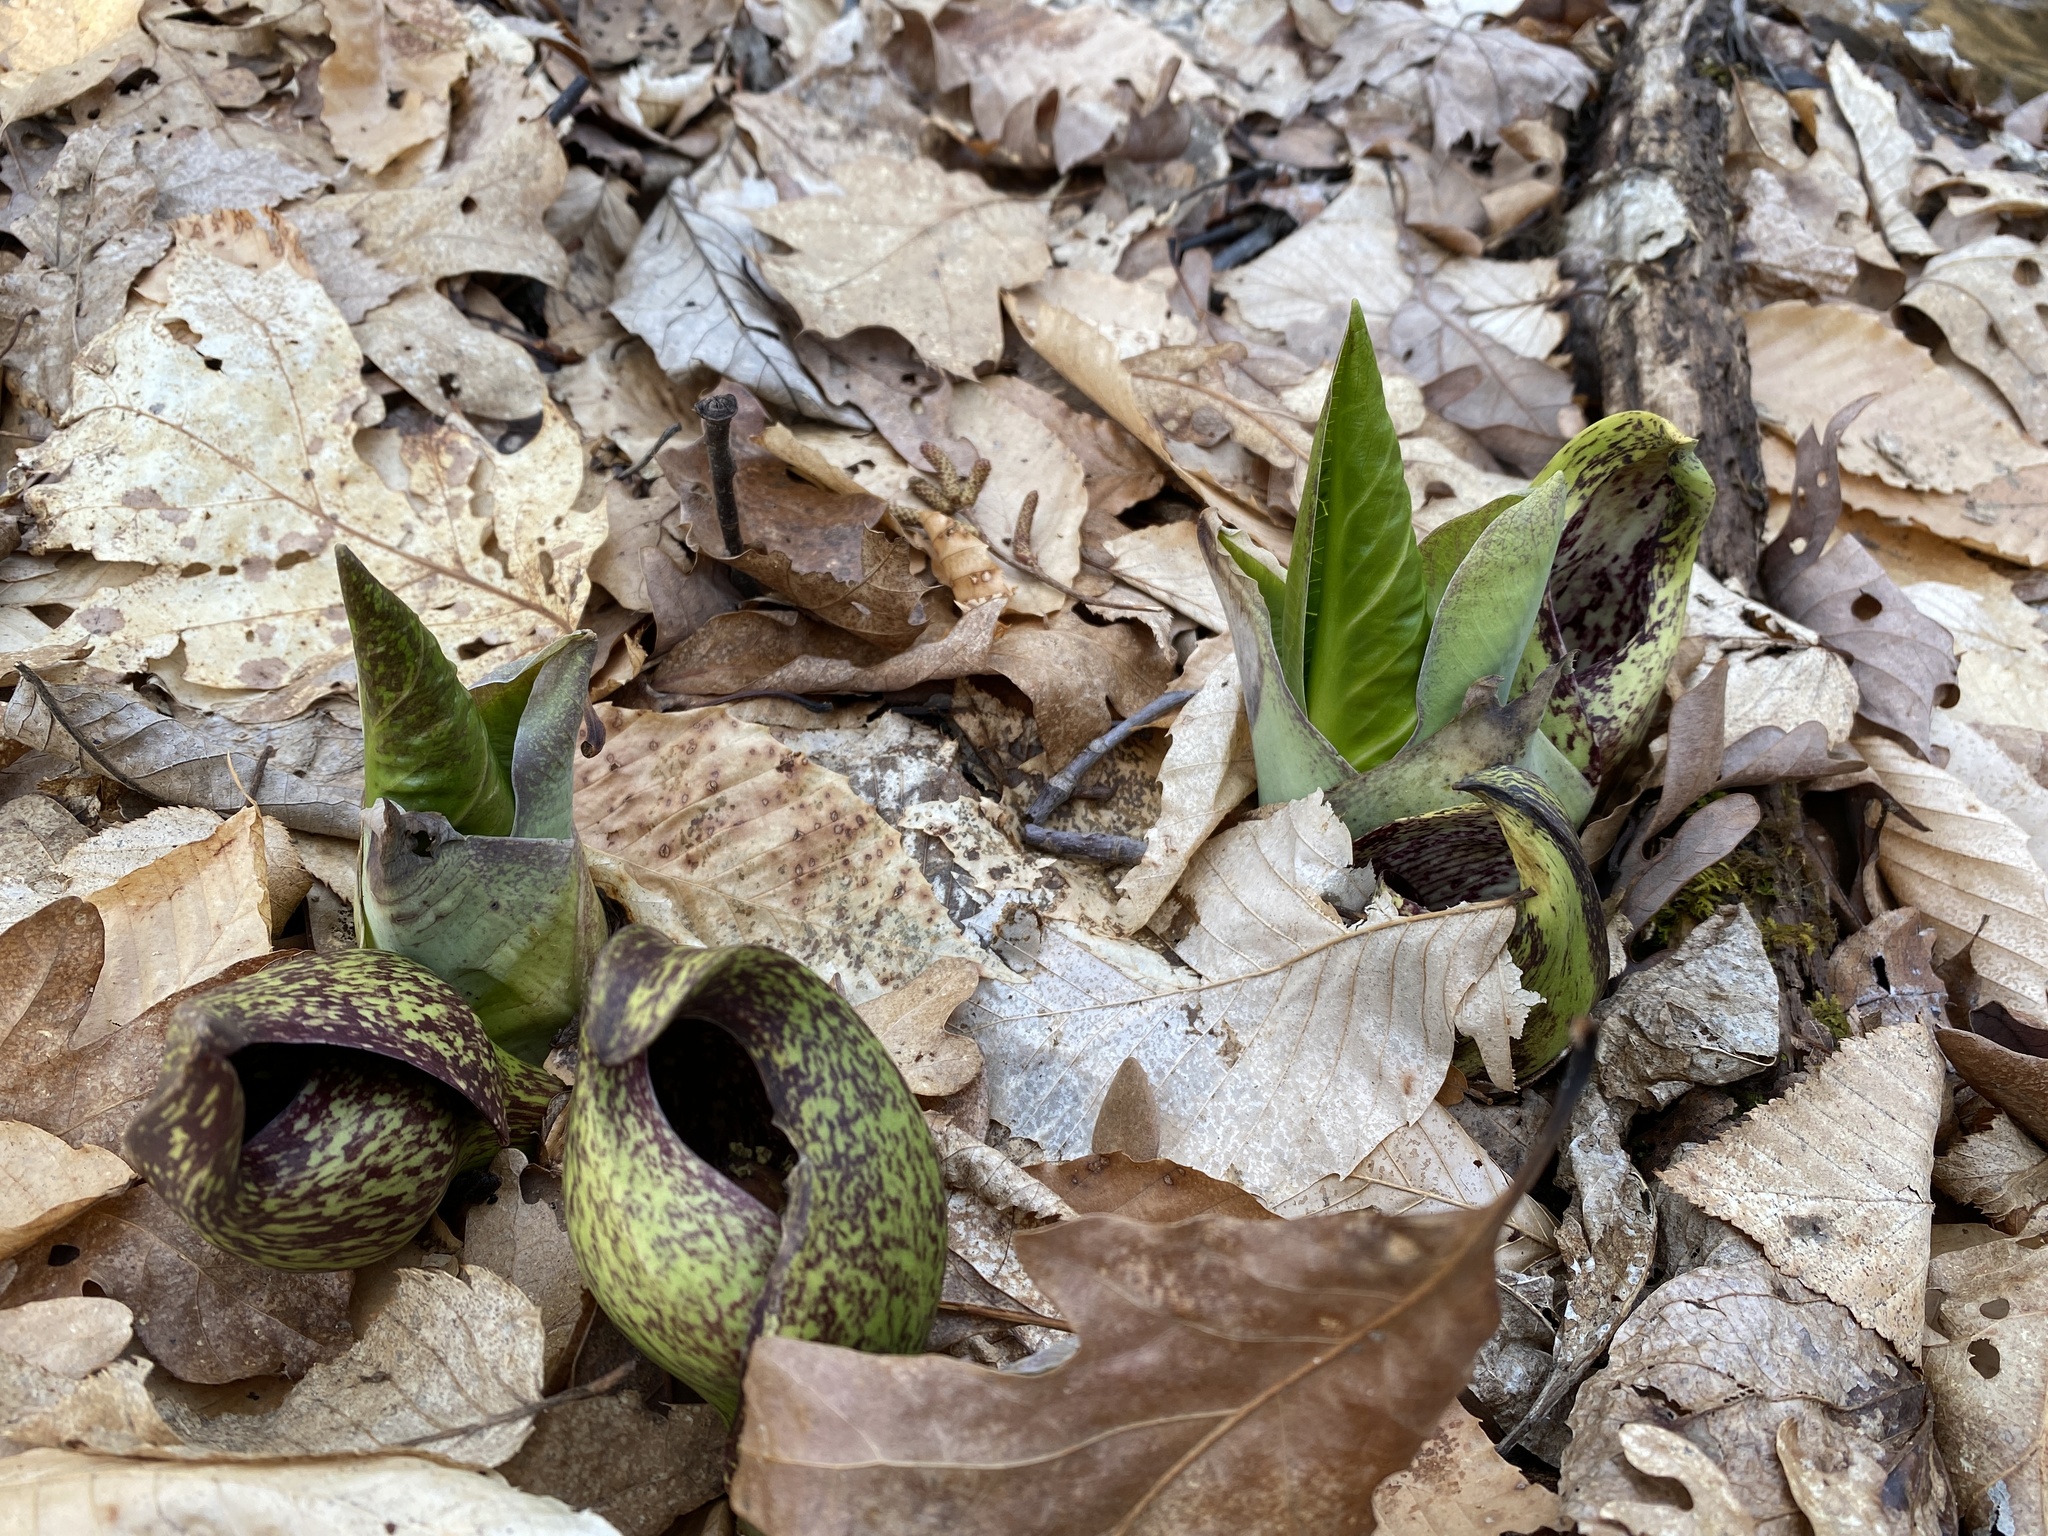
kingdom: Plantae
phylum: Tracheophyta
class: Liliopsida
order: Alismatales
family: Araceae
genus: Symplocarpus
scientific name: Symplocarpus foetidus
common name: Eastern skunk cabbage
